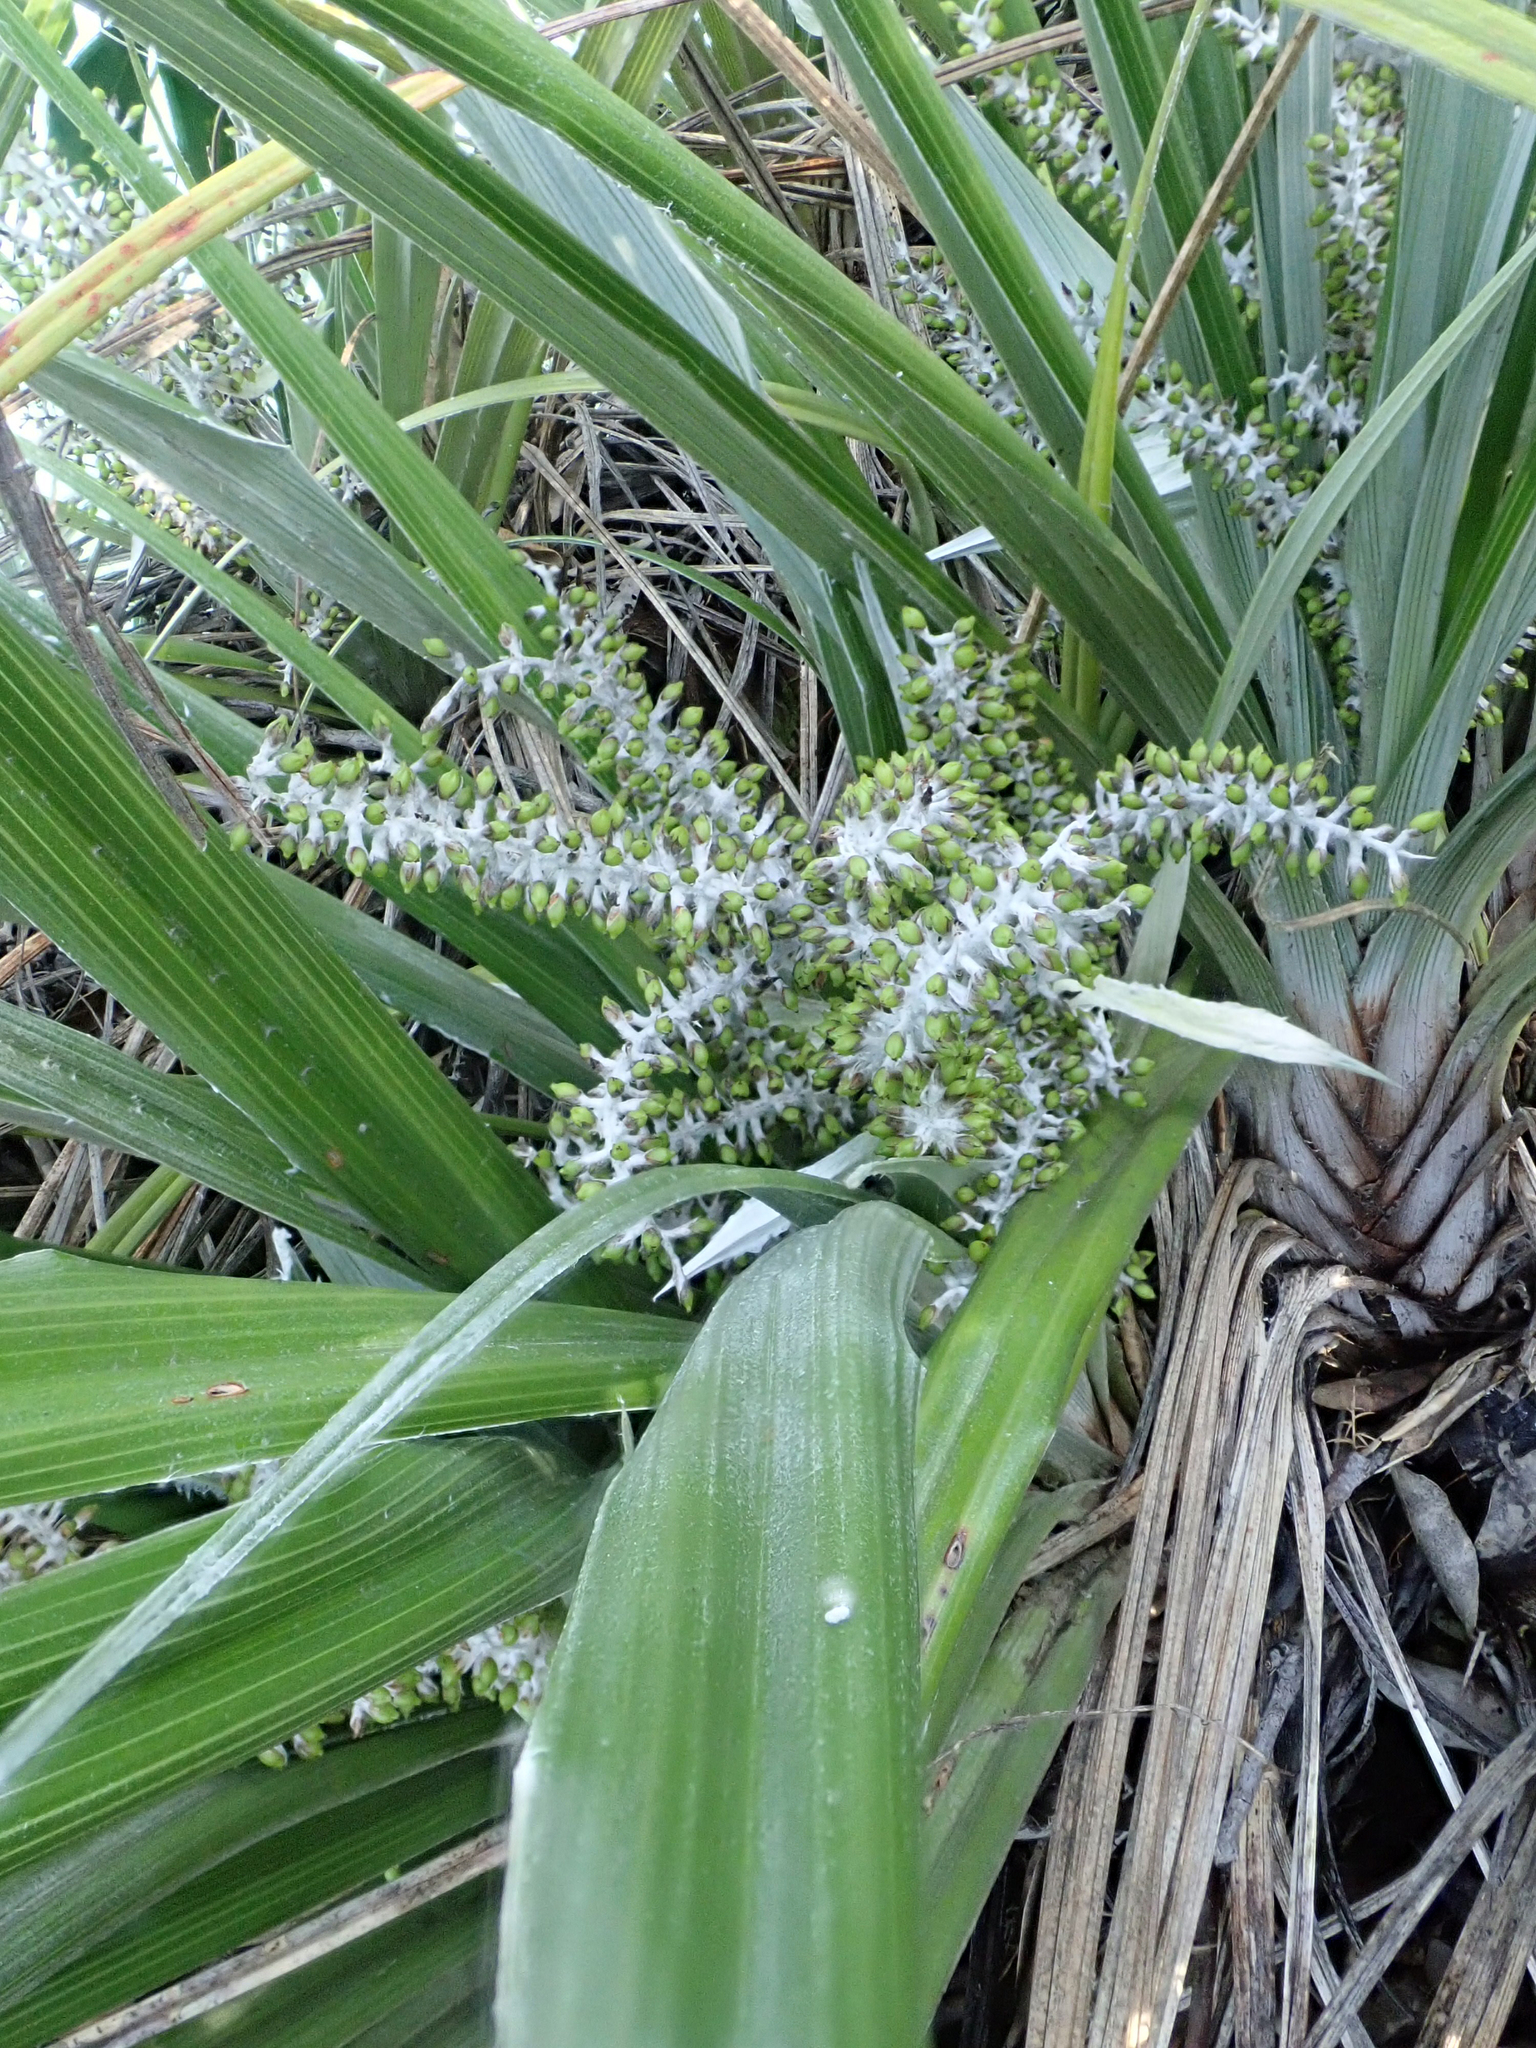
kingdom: Plantae
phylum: Tracheophyta
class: Liliopsida
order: Asparagales
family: Asteliaceae
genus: Astelia
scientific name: Astelia banksii
